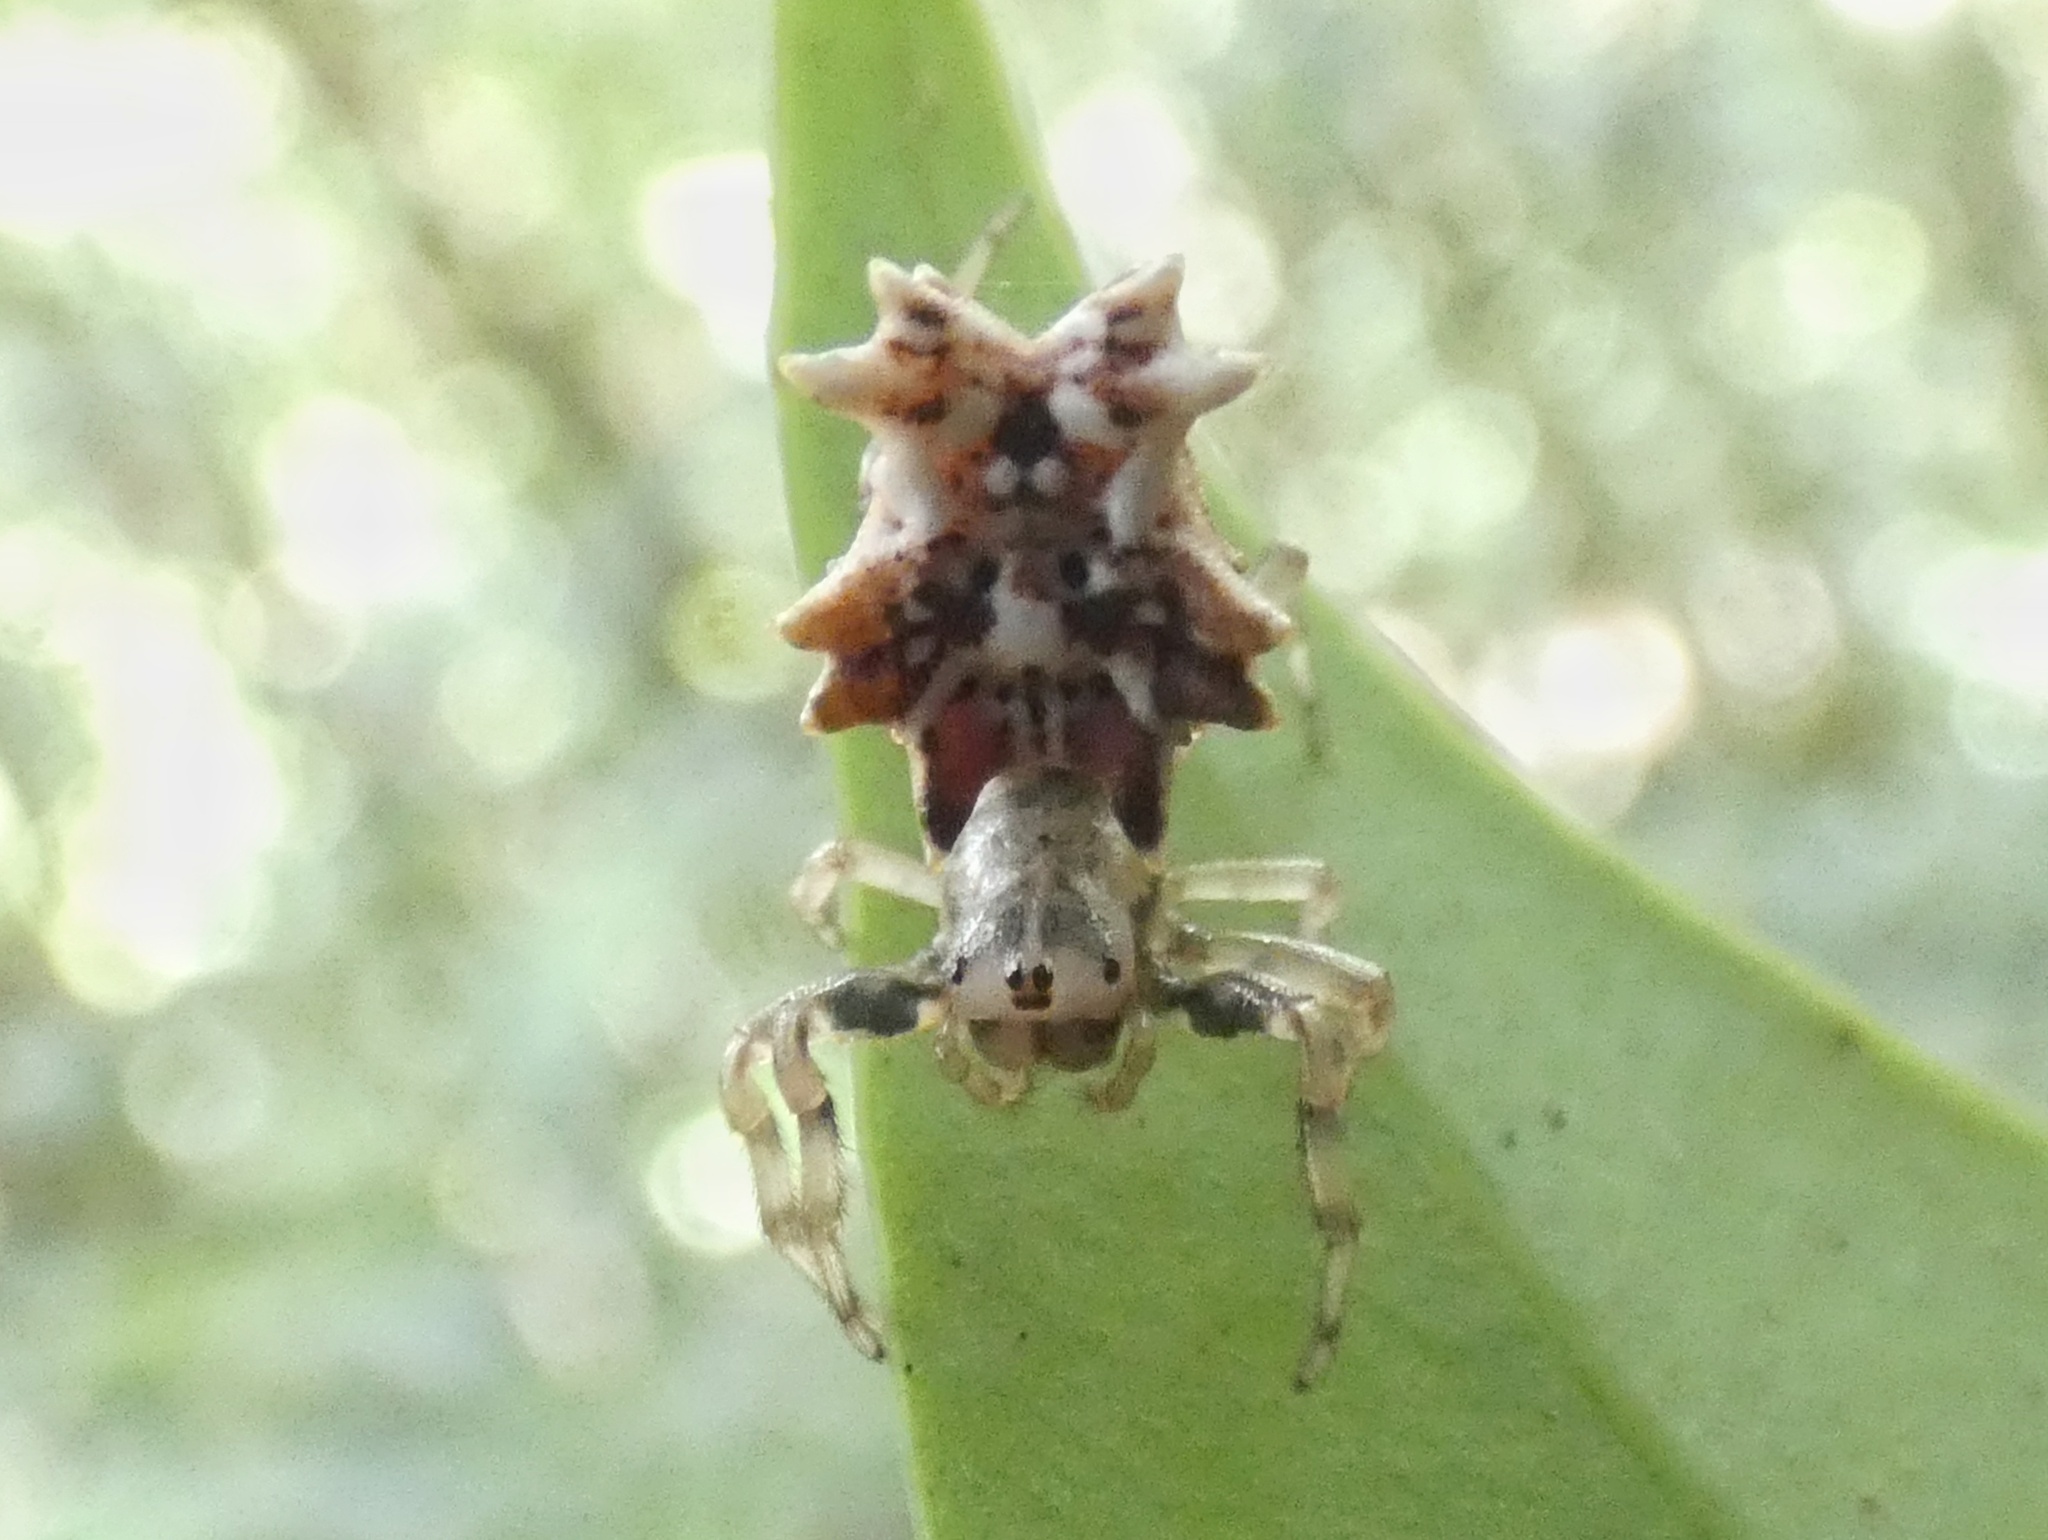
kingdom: Animalia
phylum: Arthropoda
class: Arachnida
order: Araneae
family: Araneidae
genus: Micrathena
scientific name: Micrathena horrida
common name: Orb weavers
